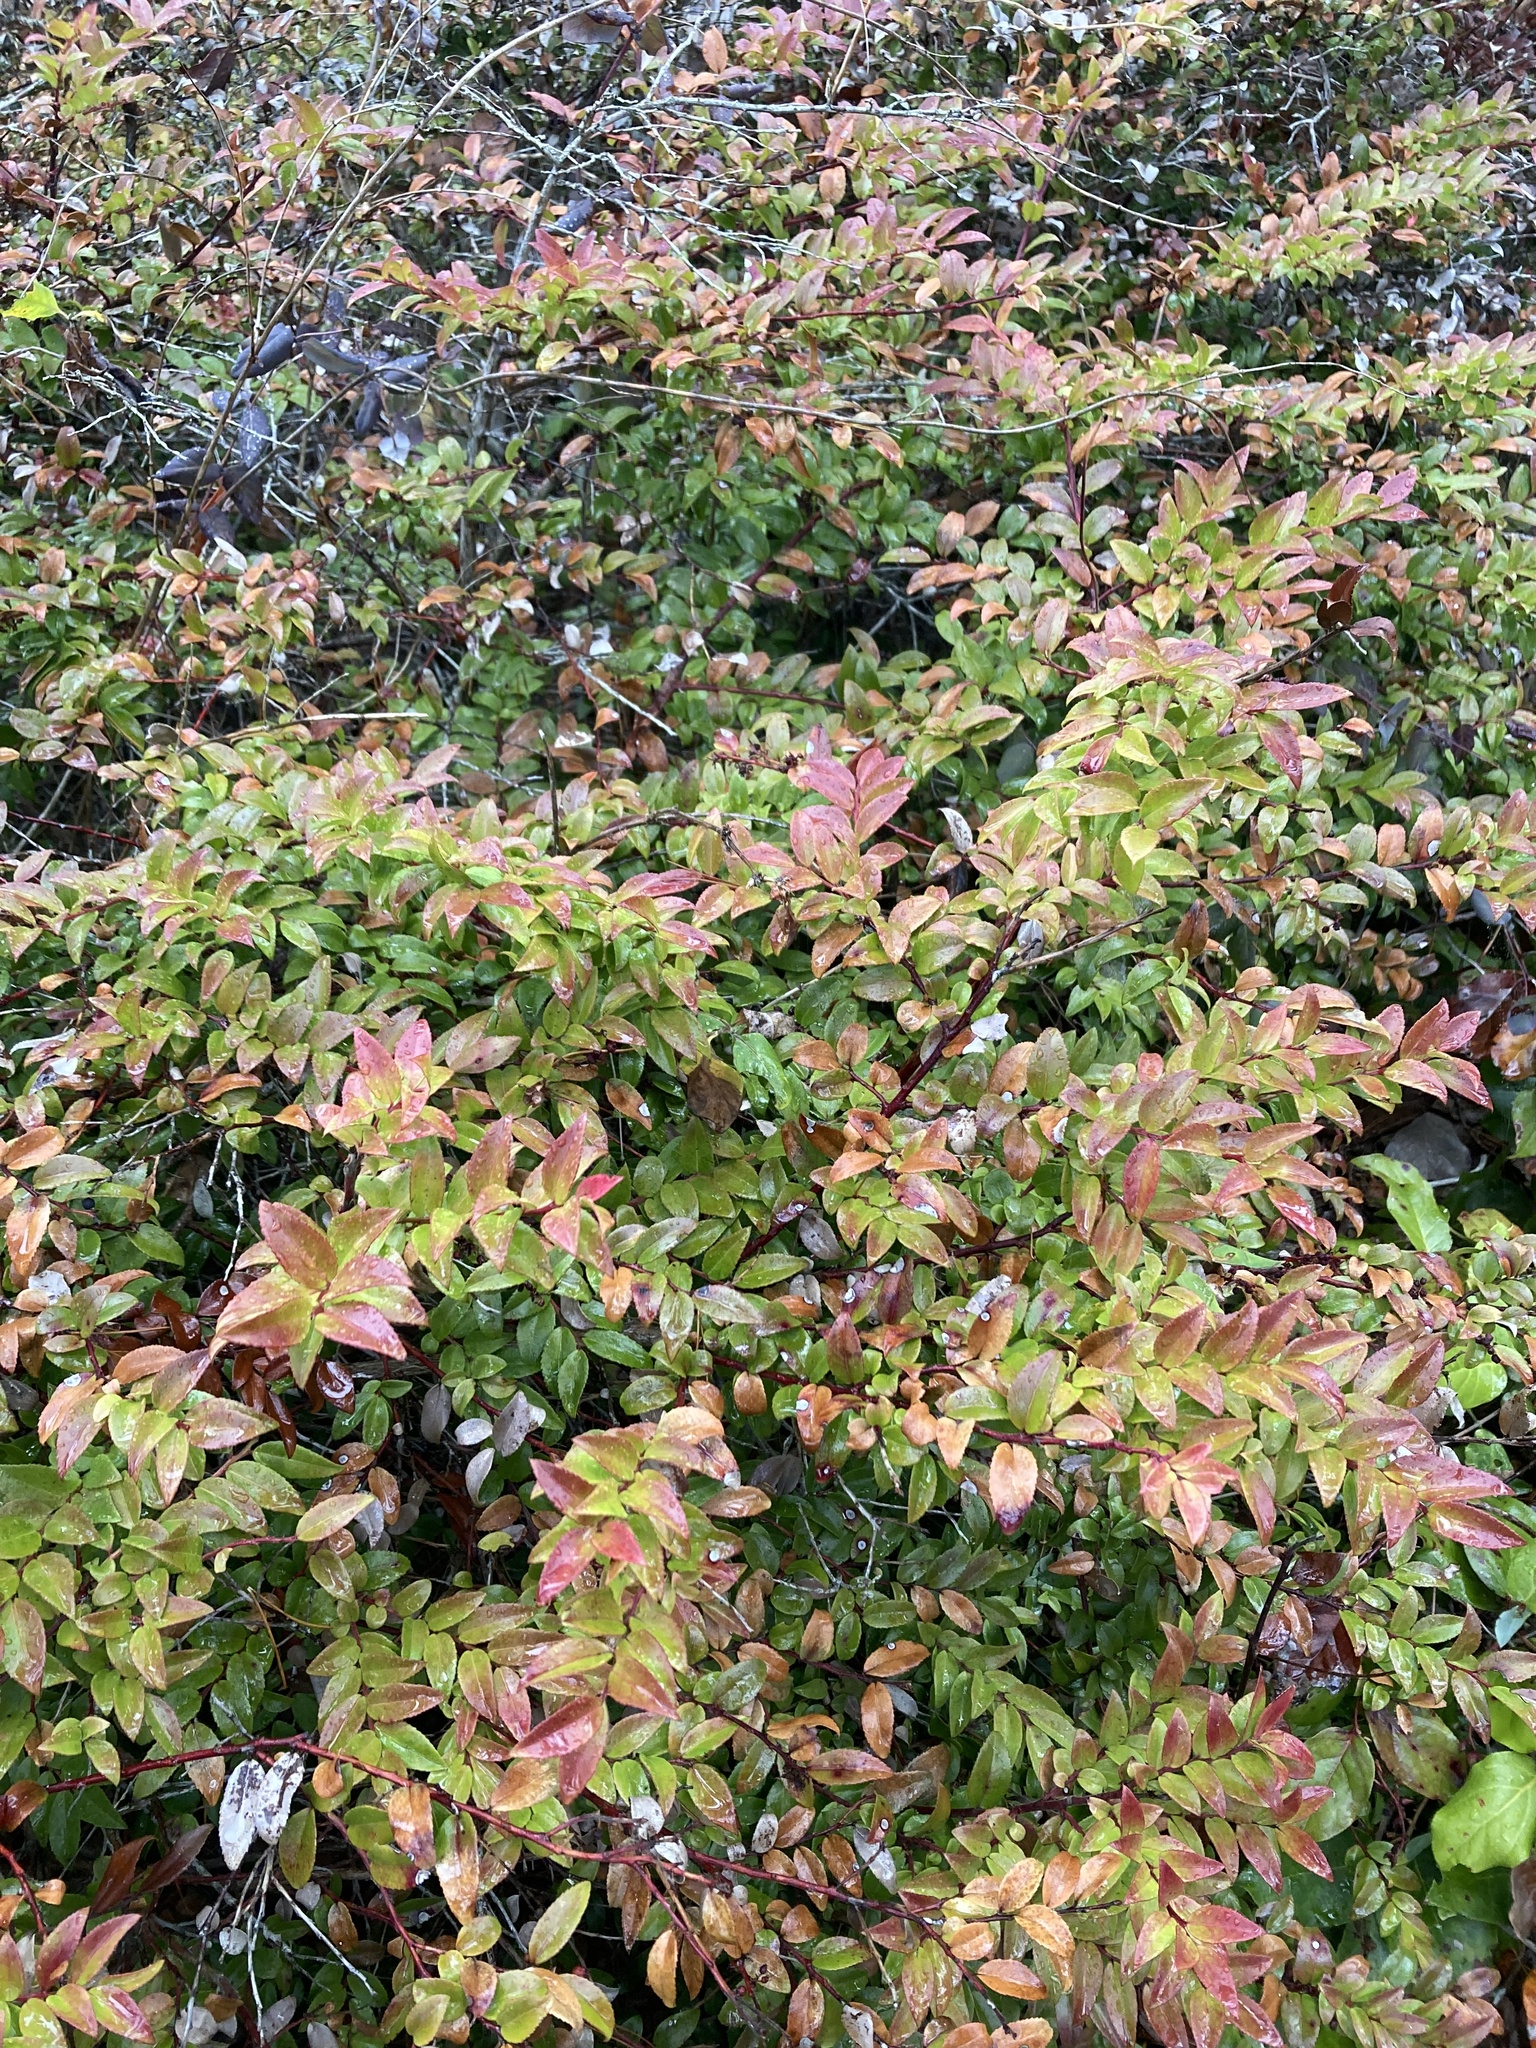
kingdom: Plantae
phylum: Tracheophyta
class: Magnoliopsida
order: Ericales
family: Ericaceae
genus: Vaccinium
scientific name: Vaccinium ovatum
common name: California-huckleberry
